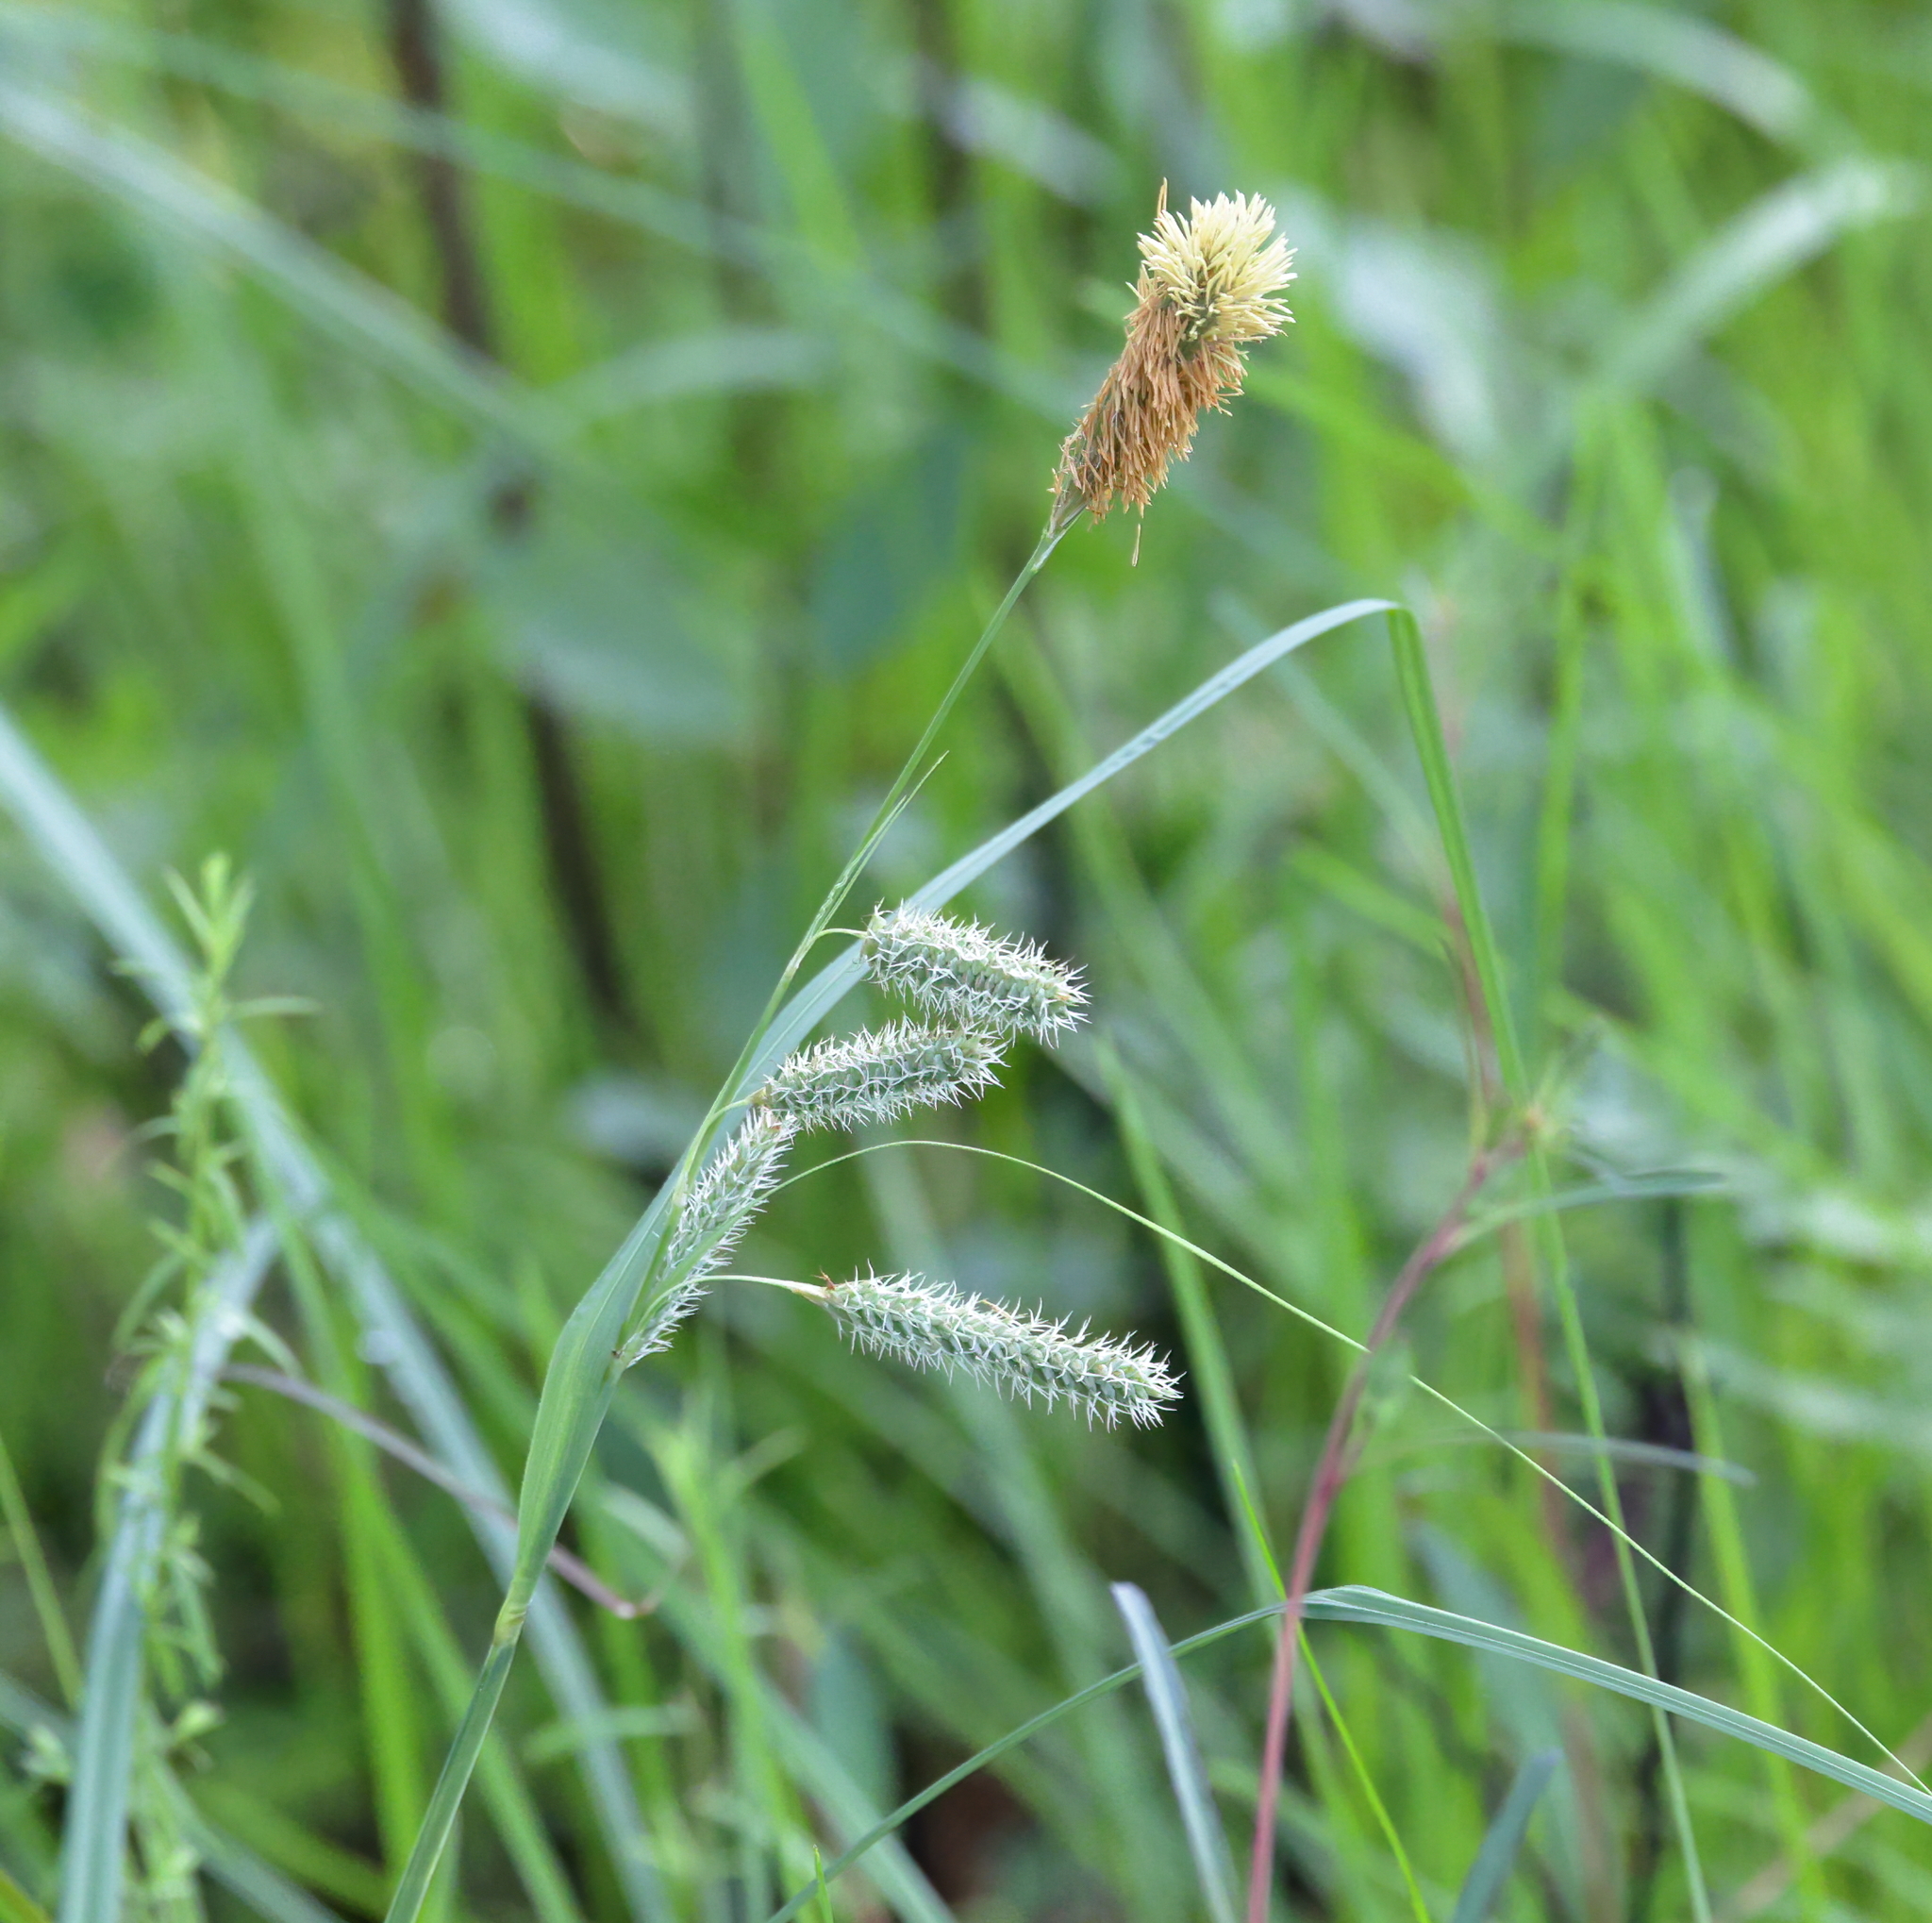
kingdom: Plantae
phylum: Tracheophyta
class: Liliopsida
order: Poales
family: Cyperaceae
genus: Carex
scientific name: Carex glaucescens
